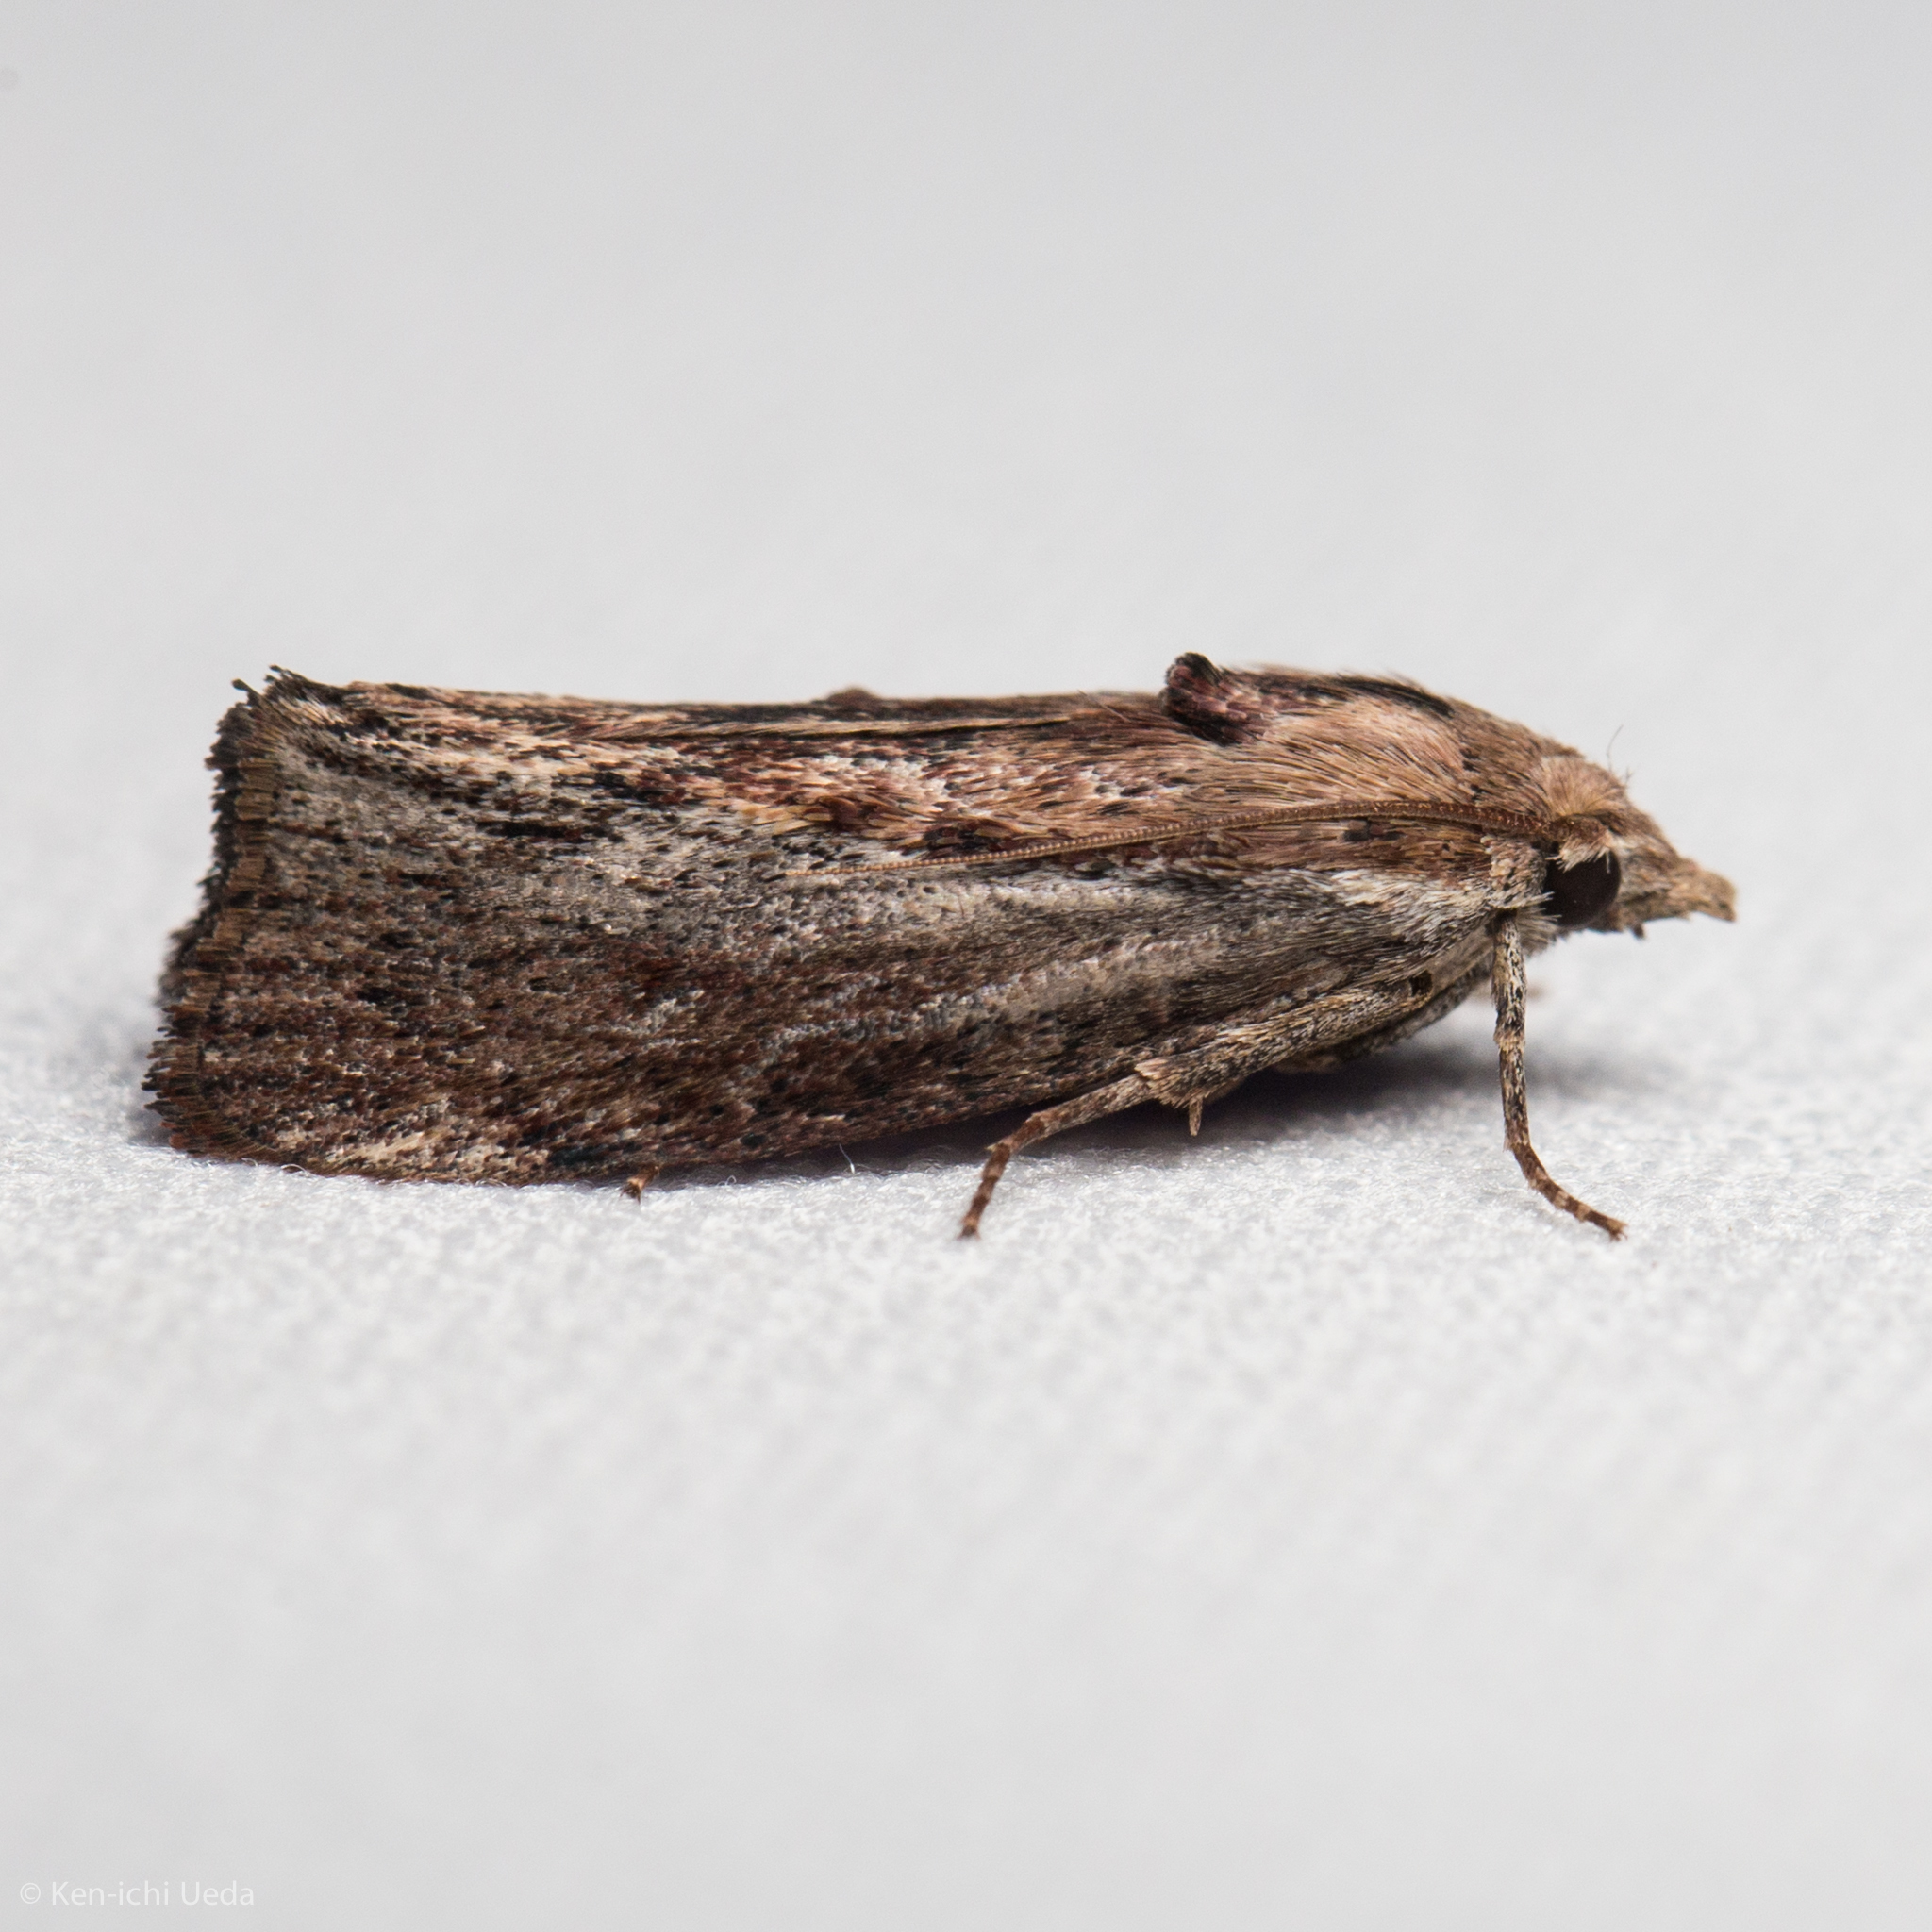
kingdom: Animalia
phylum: Arthropoda
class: Insecta
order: Lepidoptera
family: Pyralidae
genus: Galleria
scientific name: Galleria mellonella
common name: Greater wax moth
